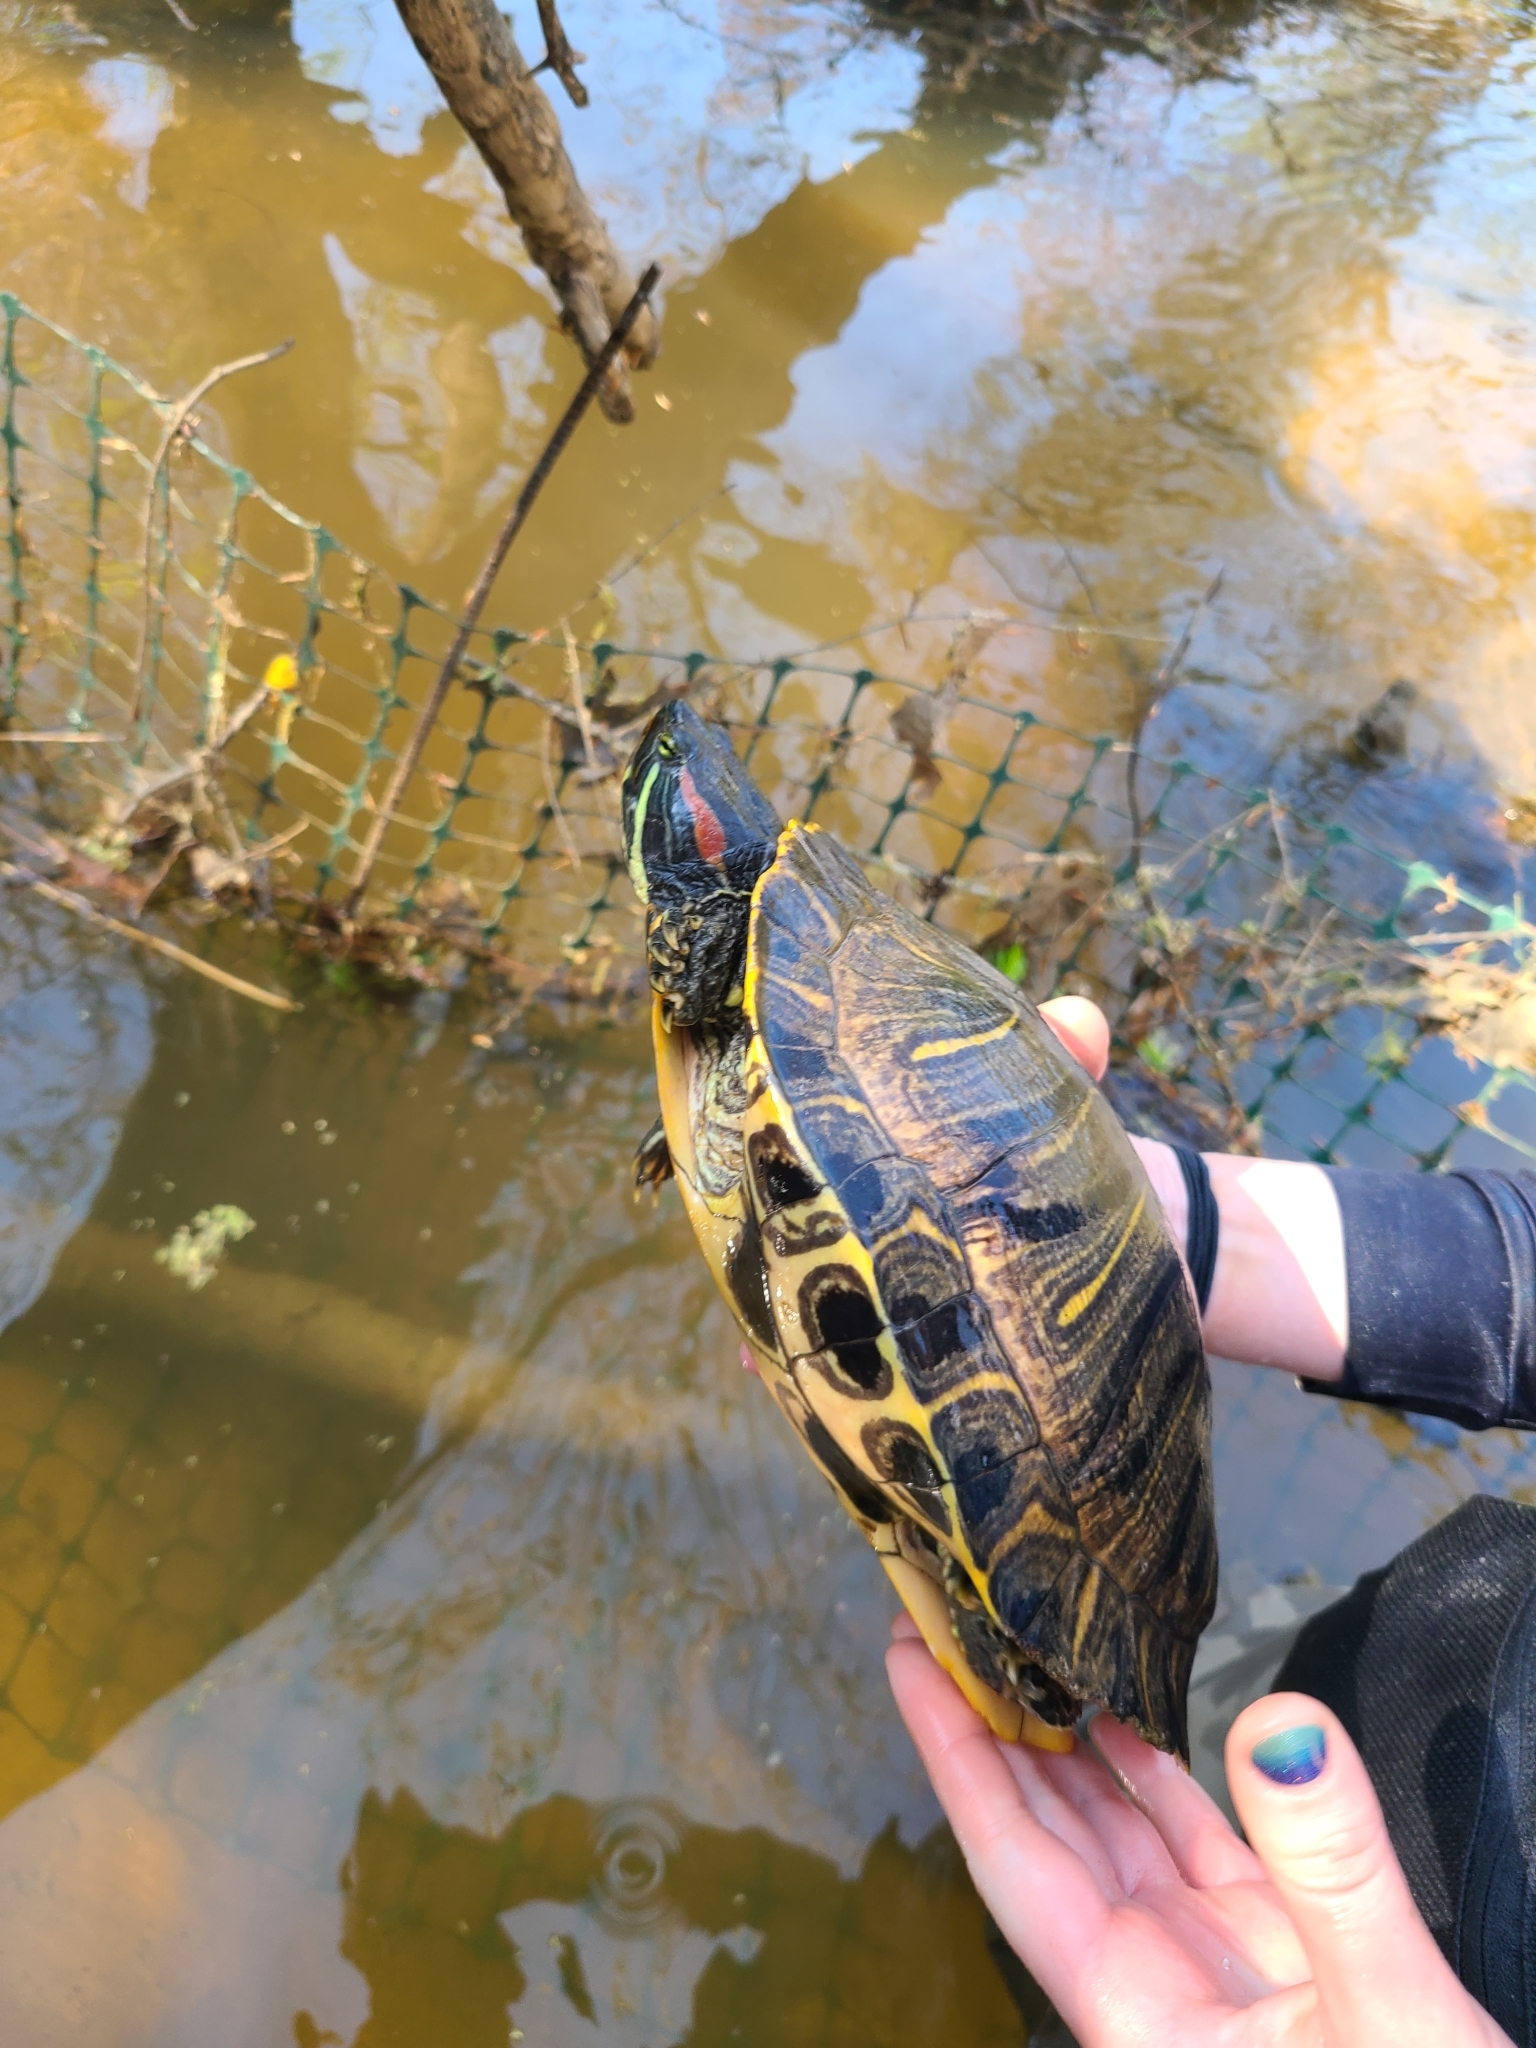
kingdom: Animalia
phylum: Chordata
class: Testudines
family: Emydidae
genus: Trachemys
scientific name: Trachemys scripta
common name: Slider
